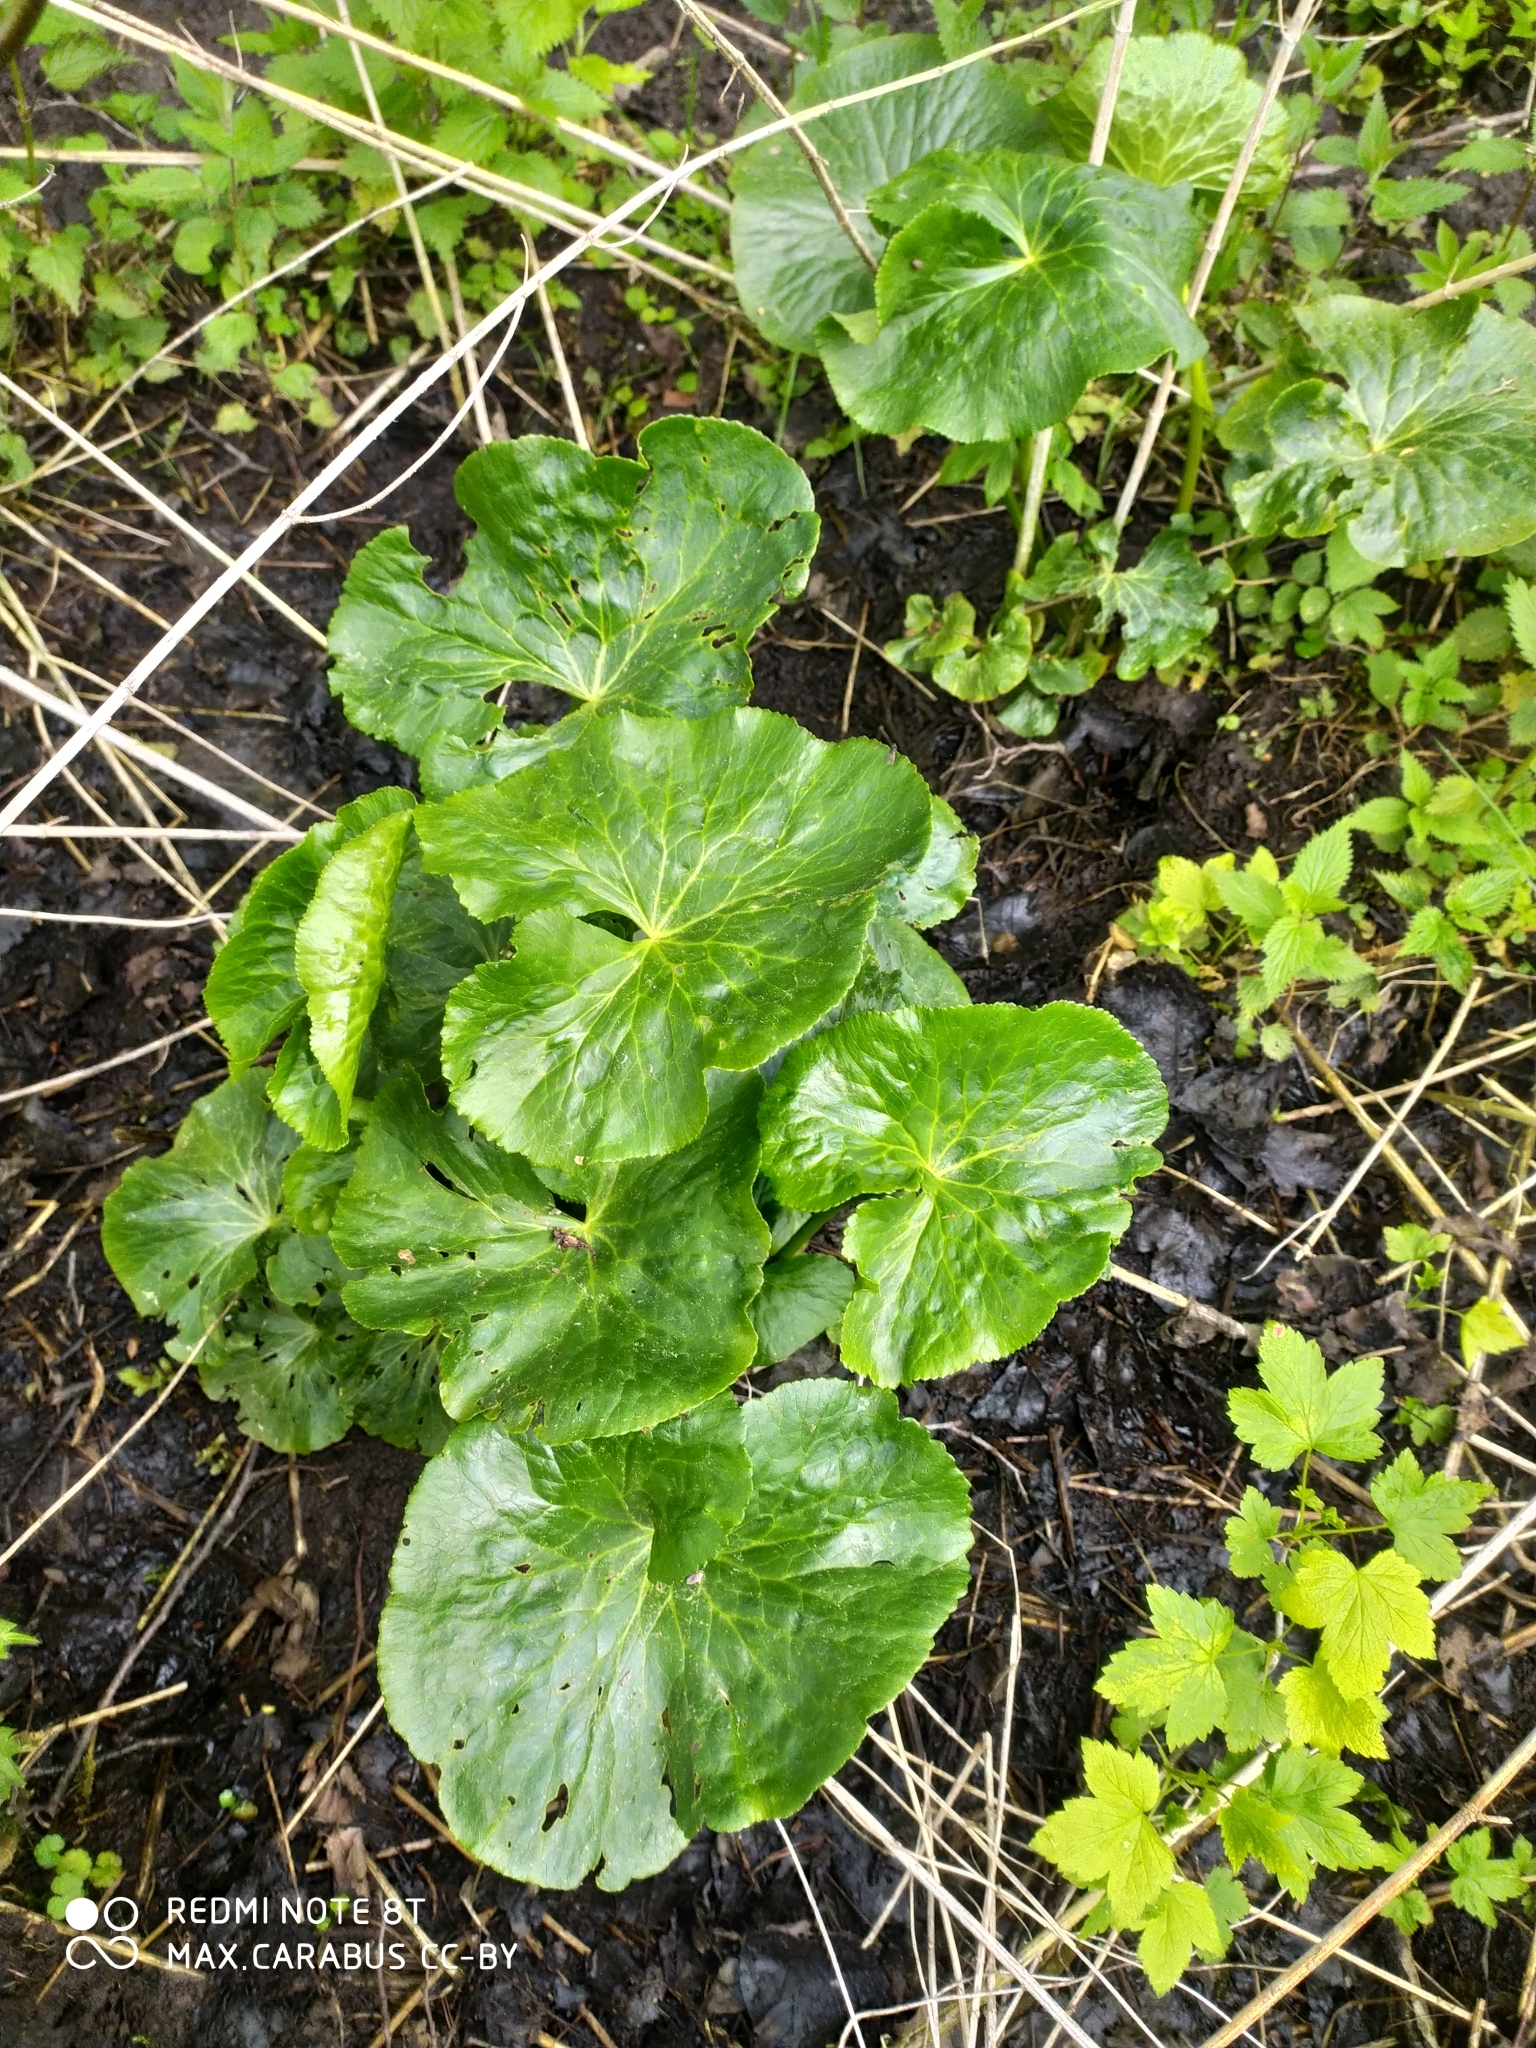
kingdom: Plantae
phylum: Tracheophyta
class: Magnoliopsida
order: Ranunculales
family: Ranunculaceae
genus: Caltha
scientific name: Caltha palustris
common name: Marsh marigold
